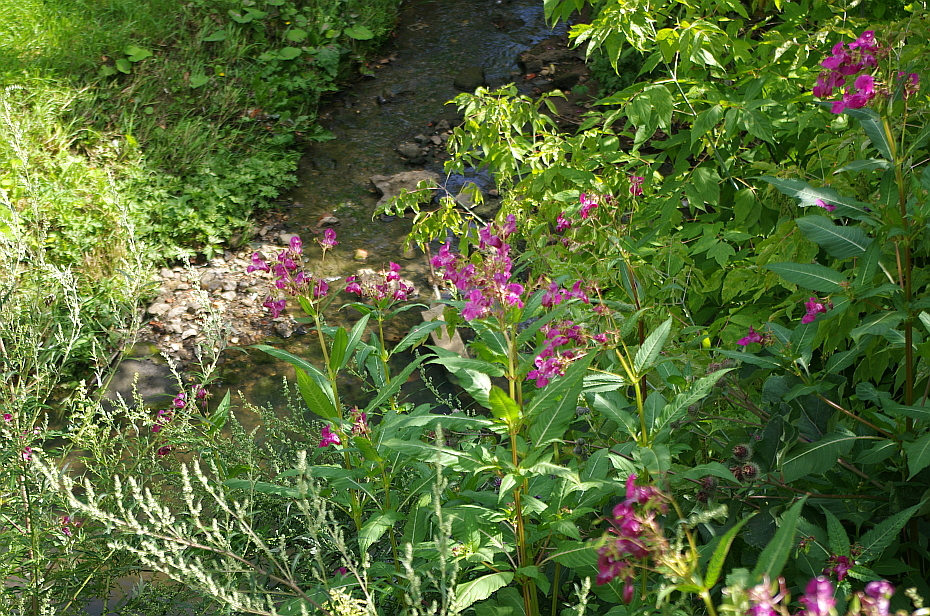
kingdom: Plantae
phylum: Tracheophyta
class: Magnoliopsida
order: Ericales
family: Balsaminaceae
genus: Impatiens
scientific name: Impatiens glandulifera
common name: Himalayan balsam
